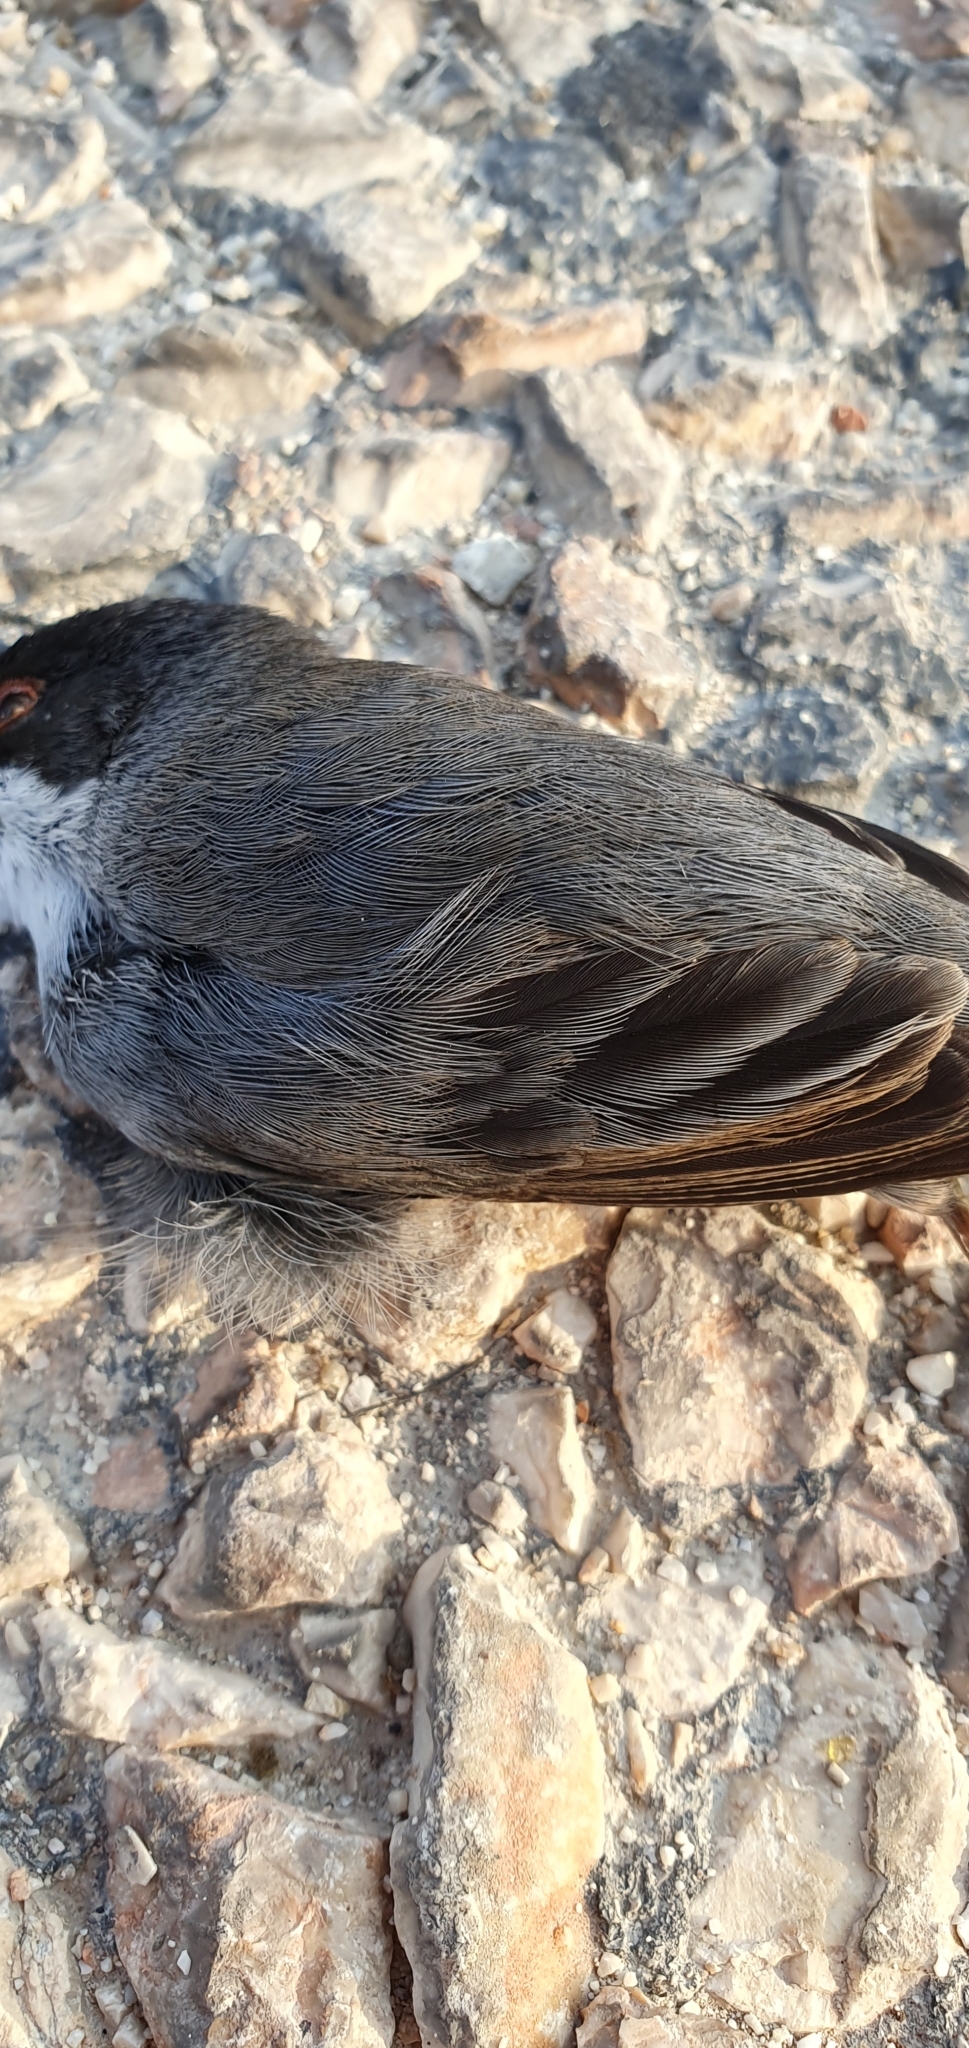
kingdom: Animalia
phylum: Chordata
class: Aves
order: Passeriformes
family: Sylviidae
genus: Curruca
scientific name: Curruca melanocephala
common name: Sardinian warbler
